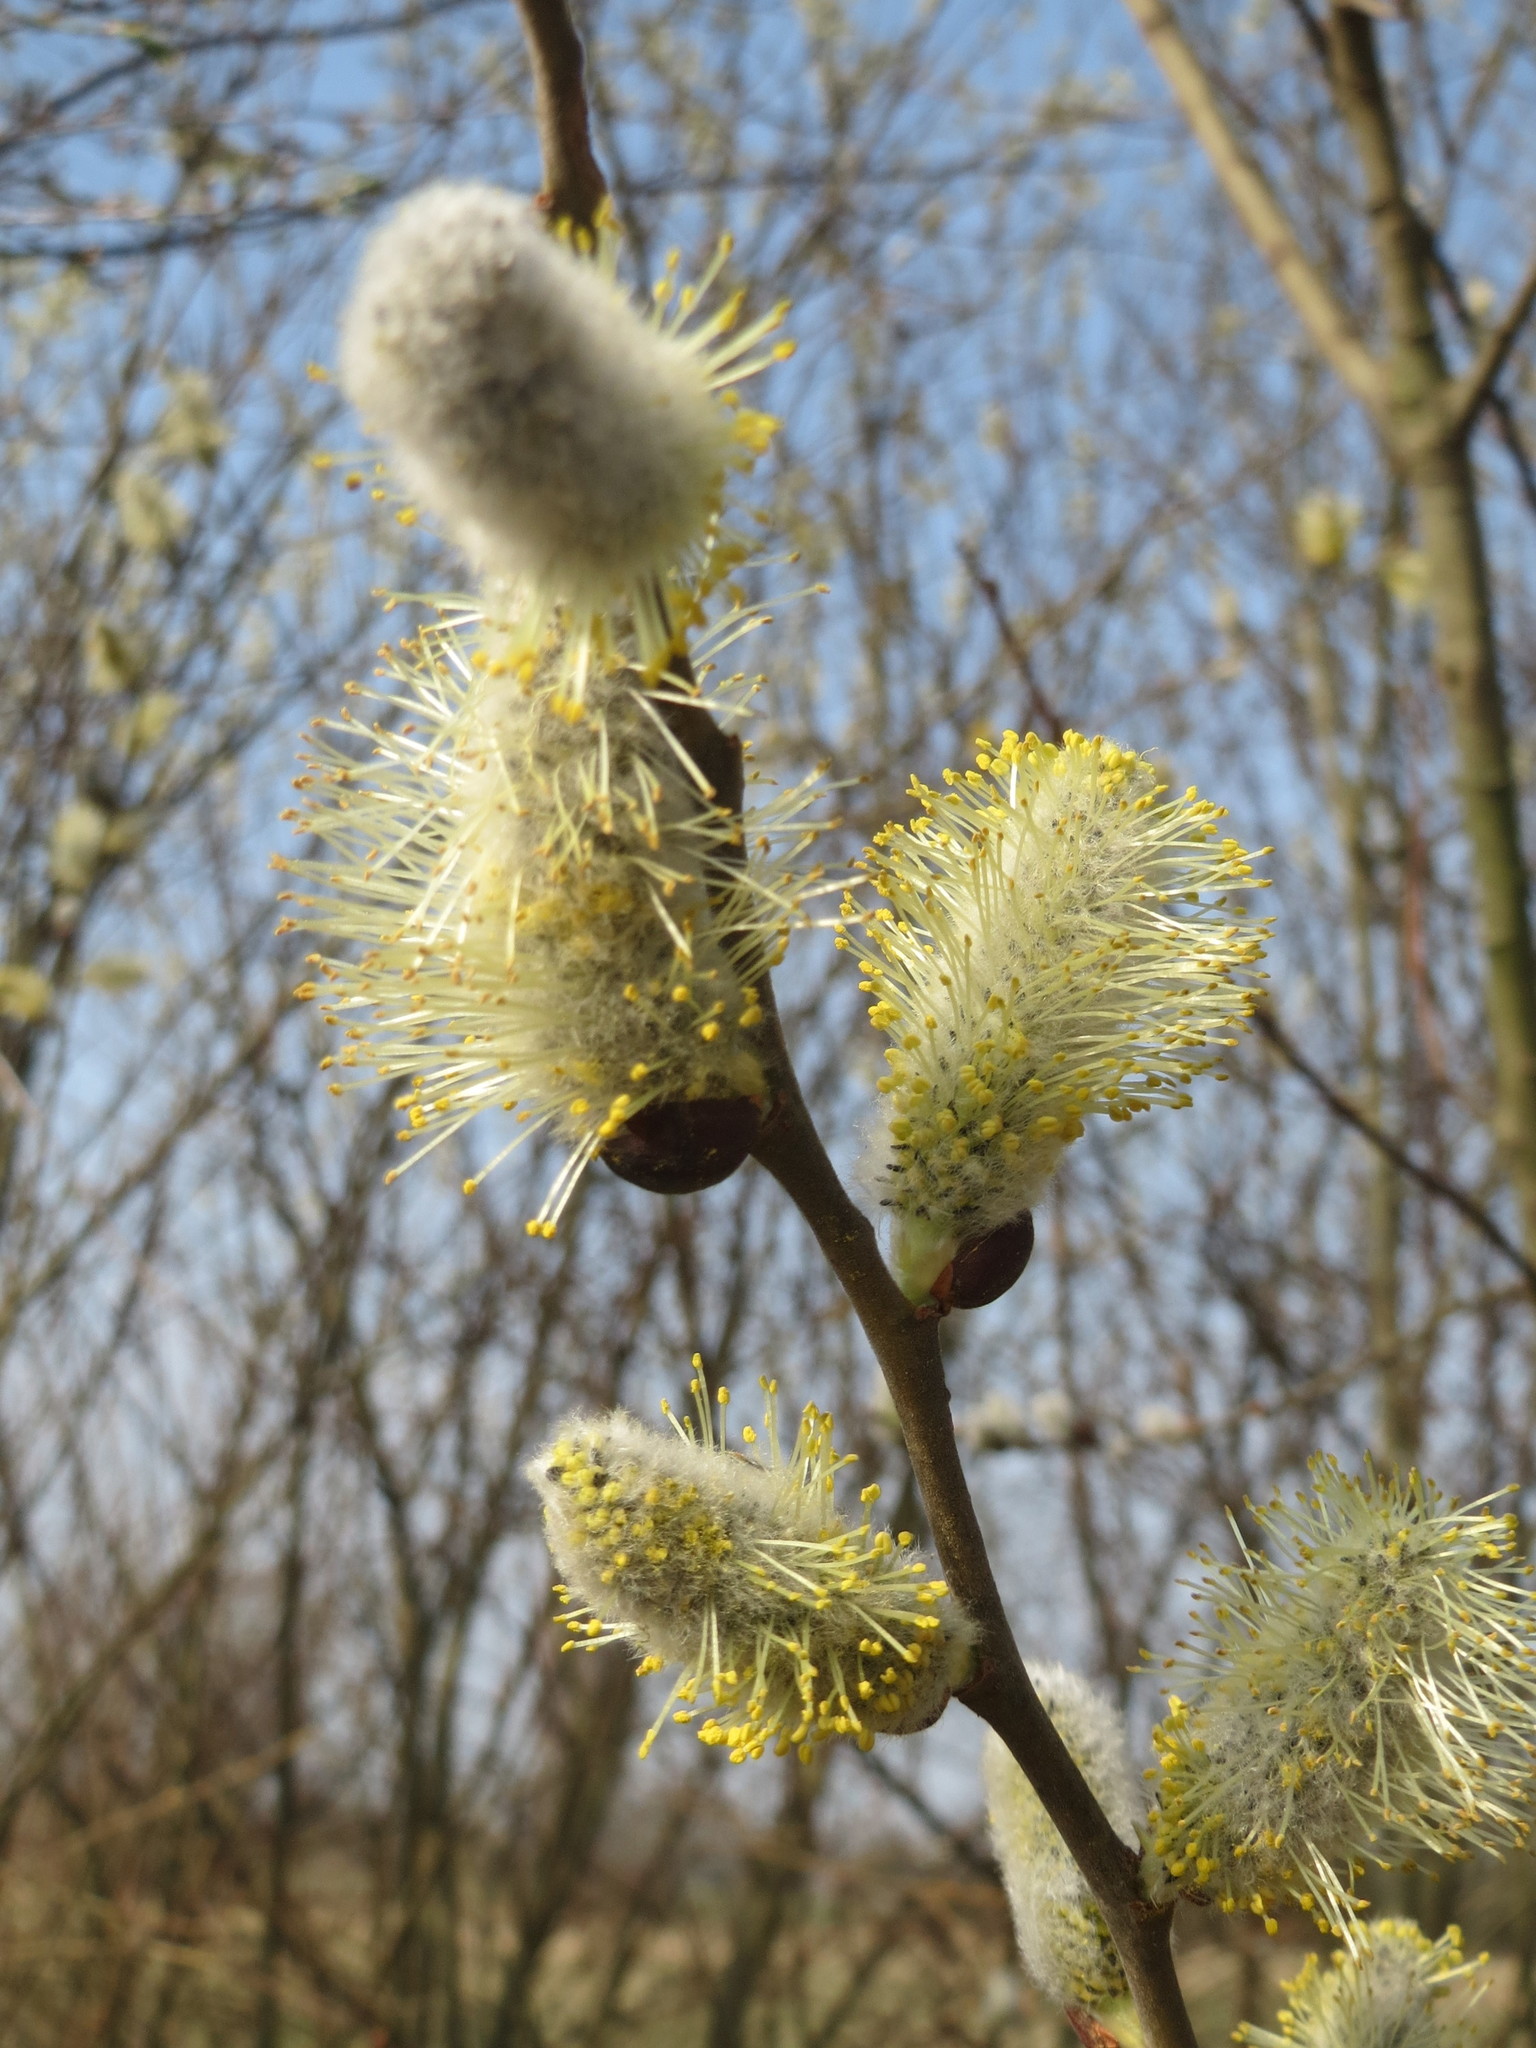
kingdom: Plantae
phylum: Tracheophyta
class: Magnoliopsida
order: Malpighiales
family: Salicaceae
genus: Salix
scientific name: Salix caprea
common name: Goat willow
